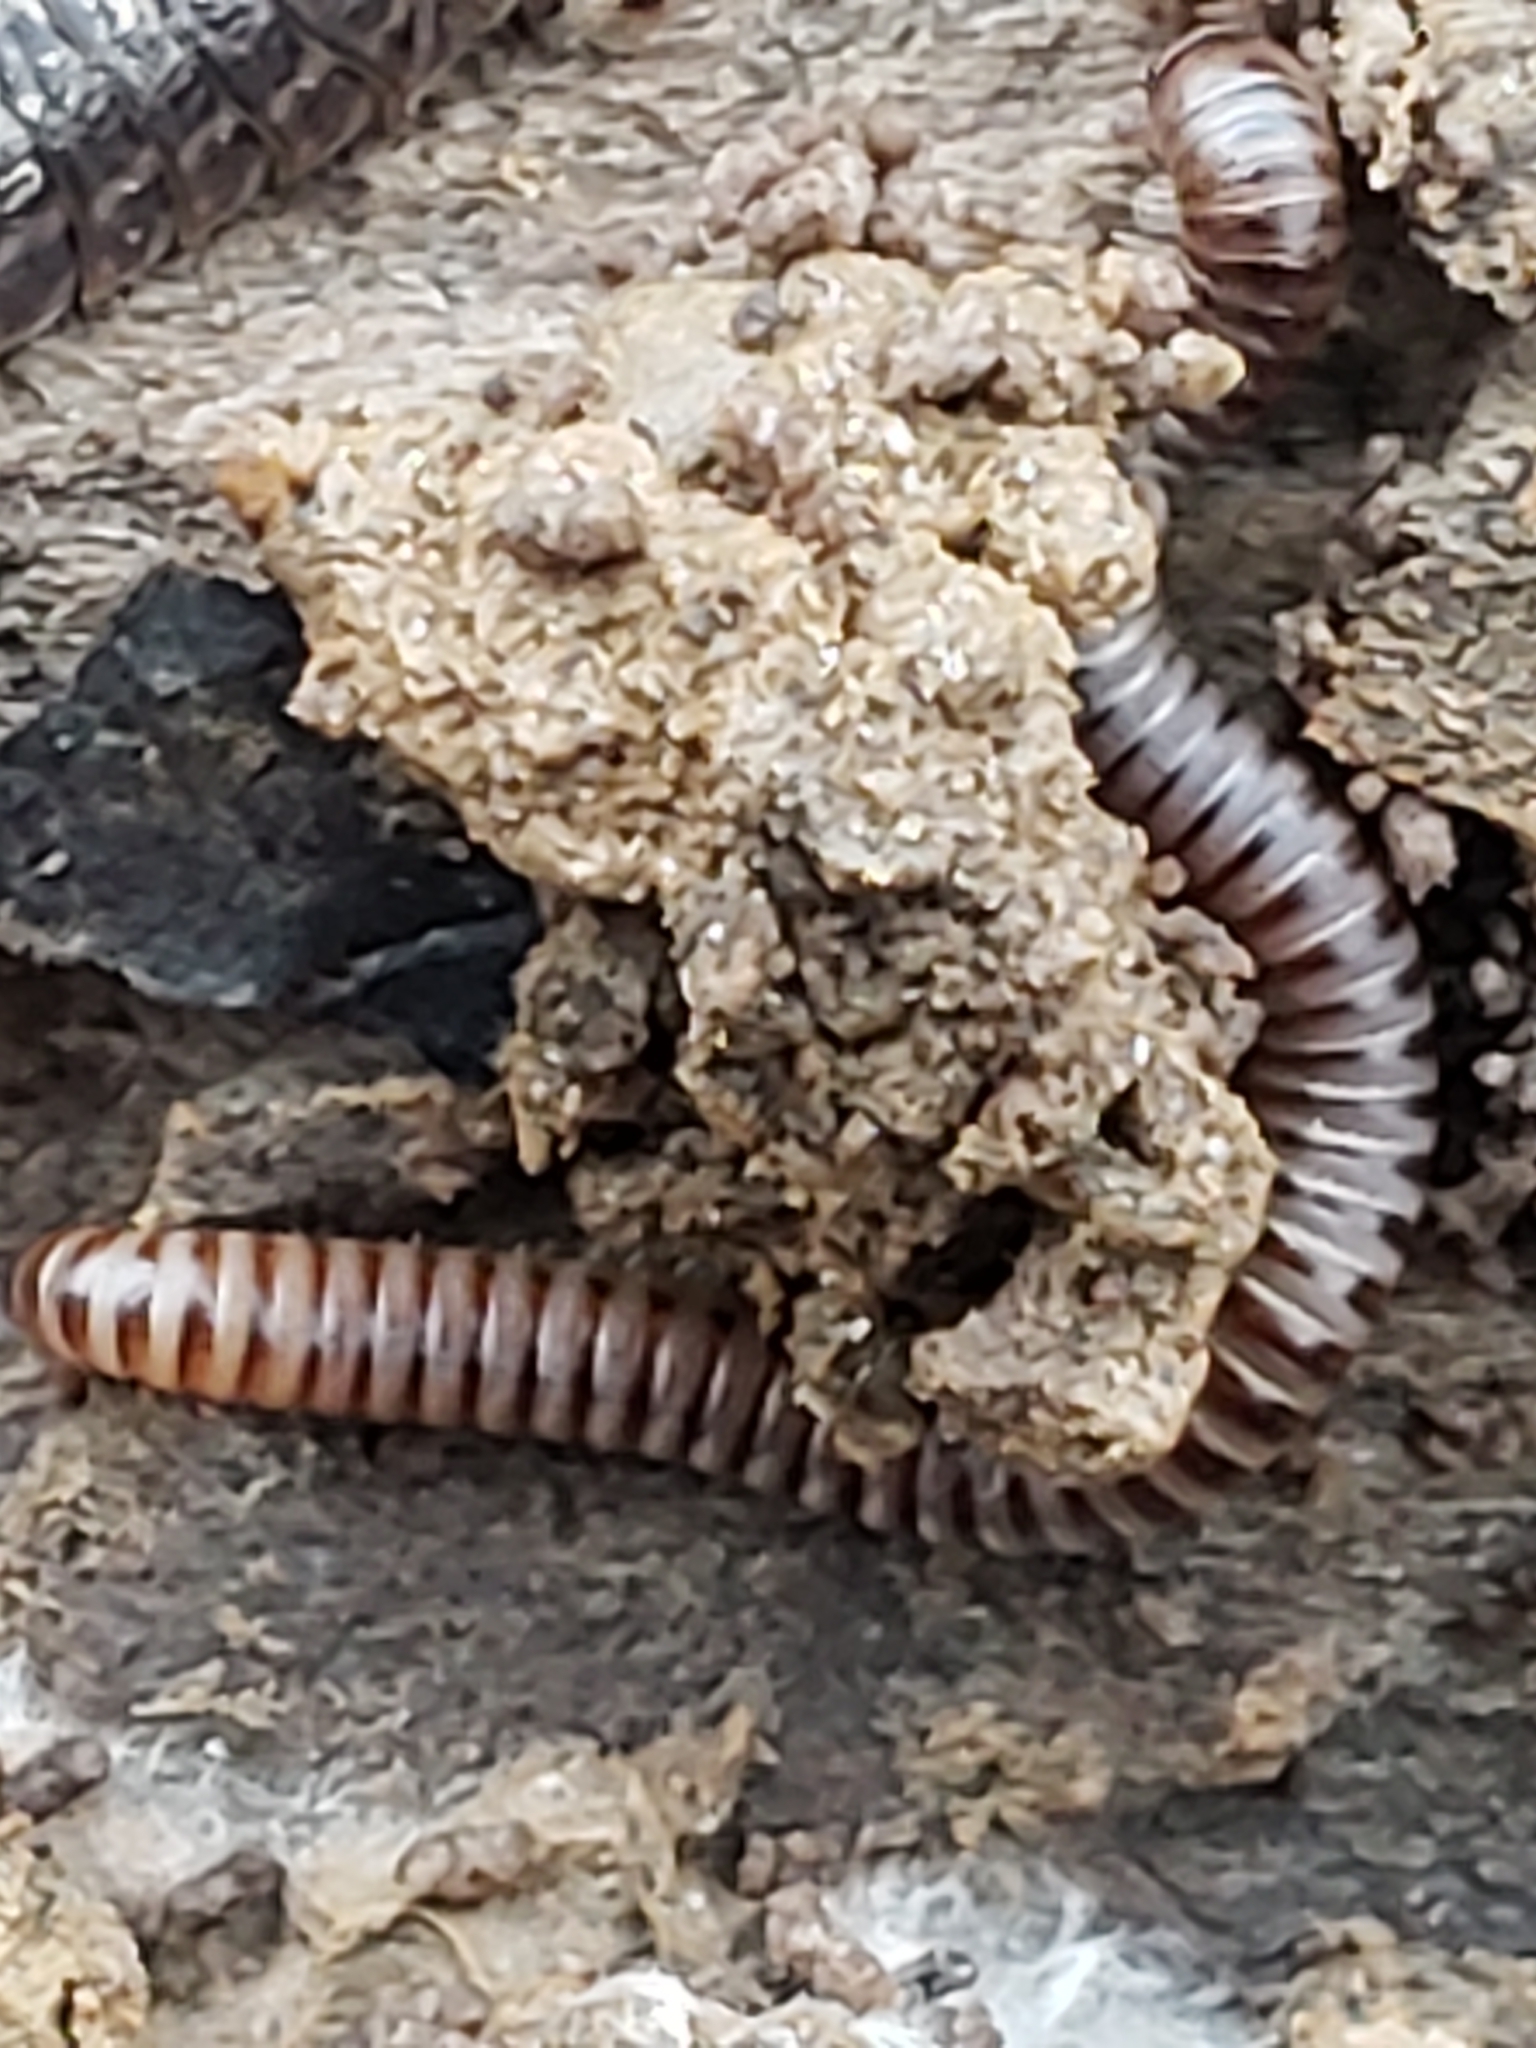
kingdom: Animalia
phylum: Arthropoda
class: Diplopoda
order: Julida
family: Julidae
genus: Cylindroiulus
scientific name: Cylindroiulus punctatus
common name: Blunt-tailed millipede
